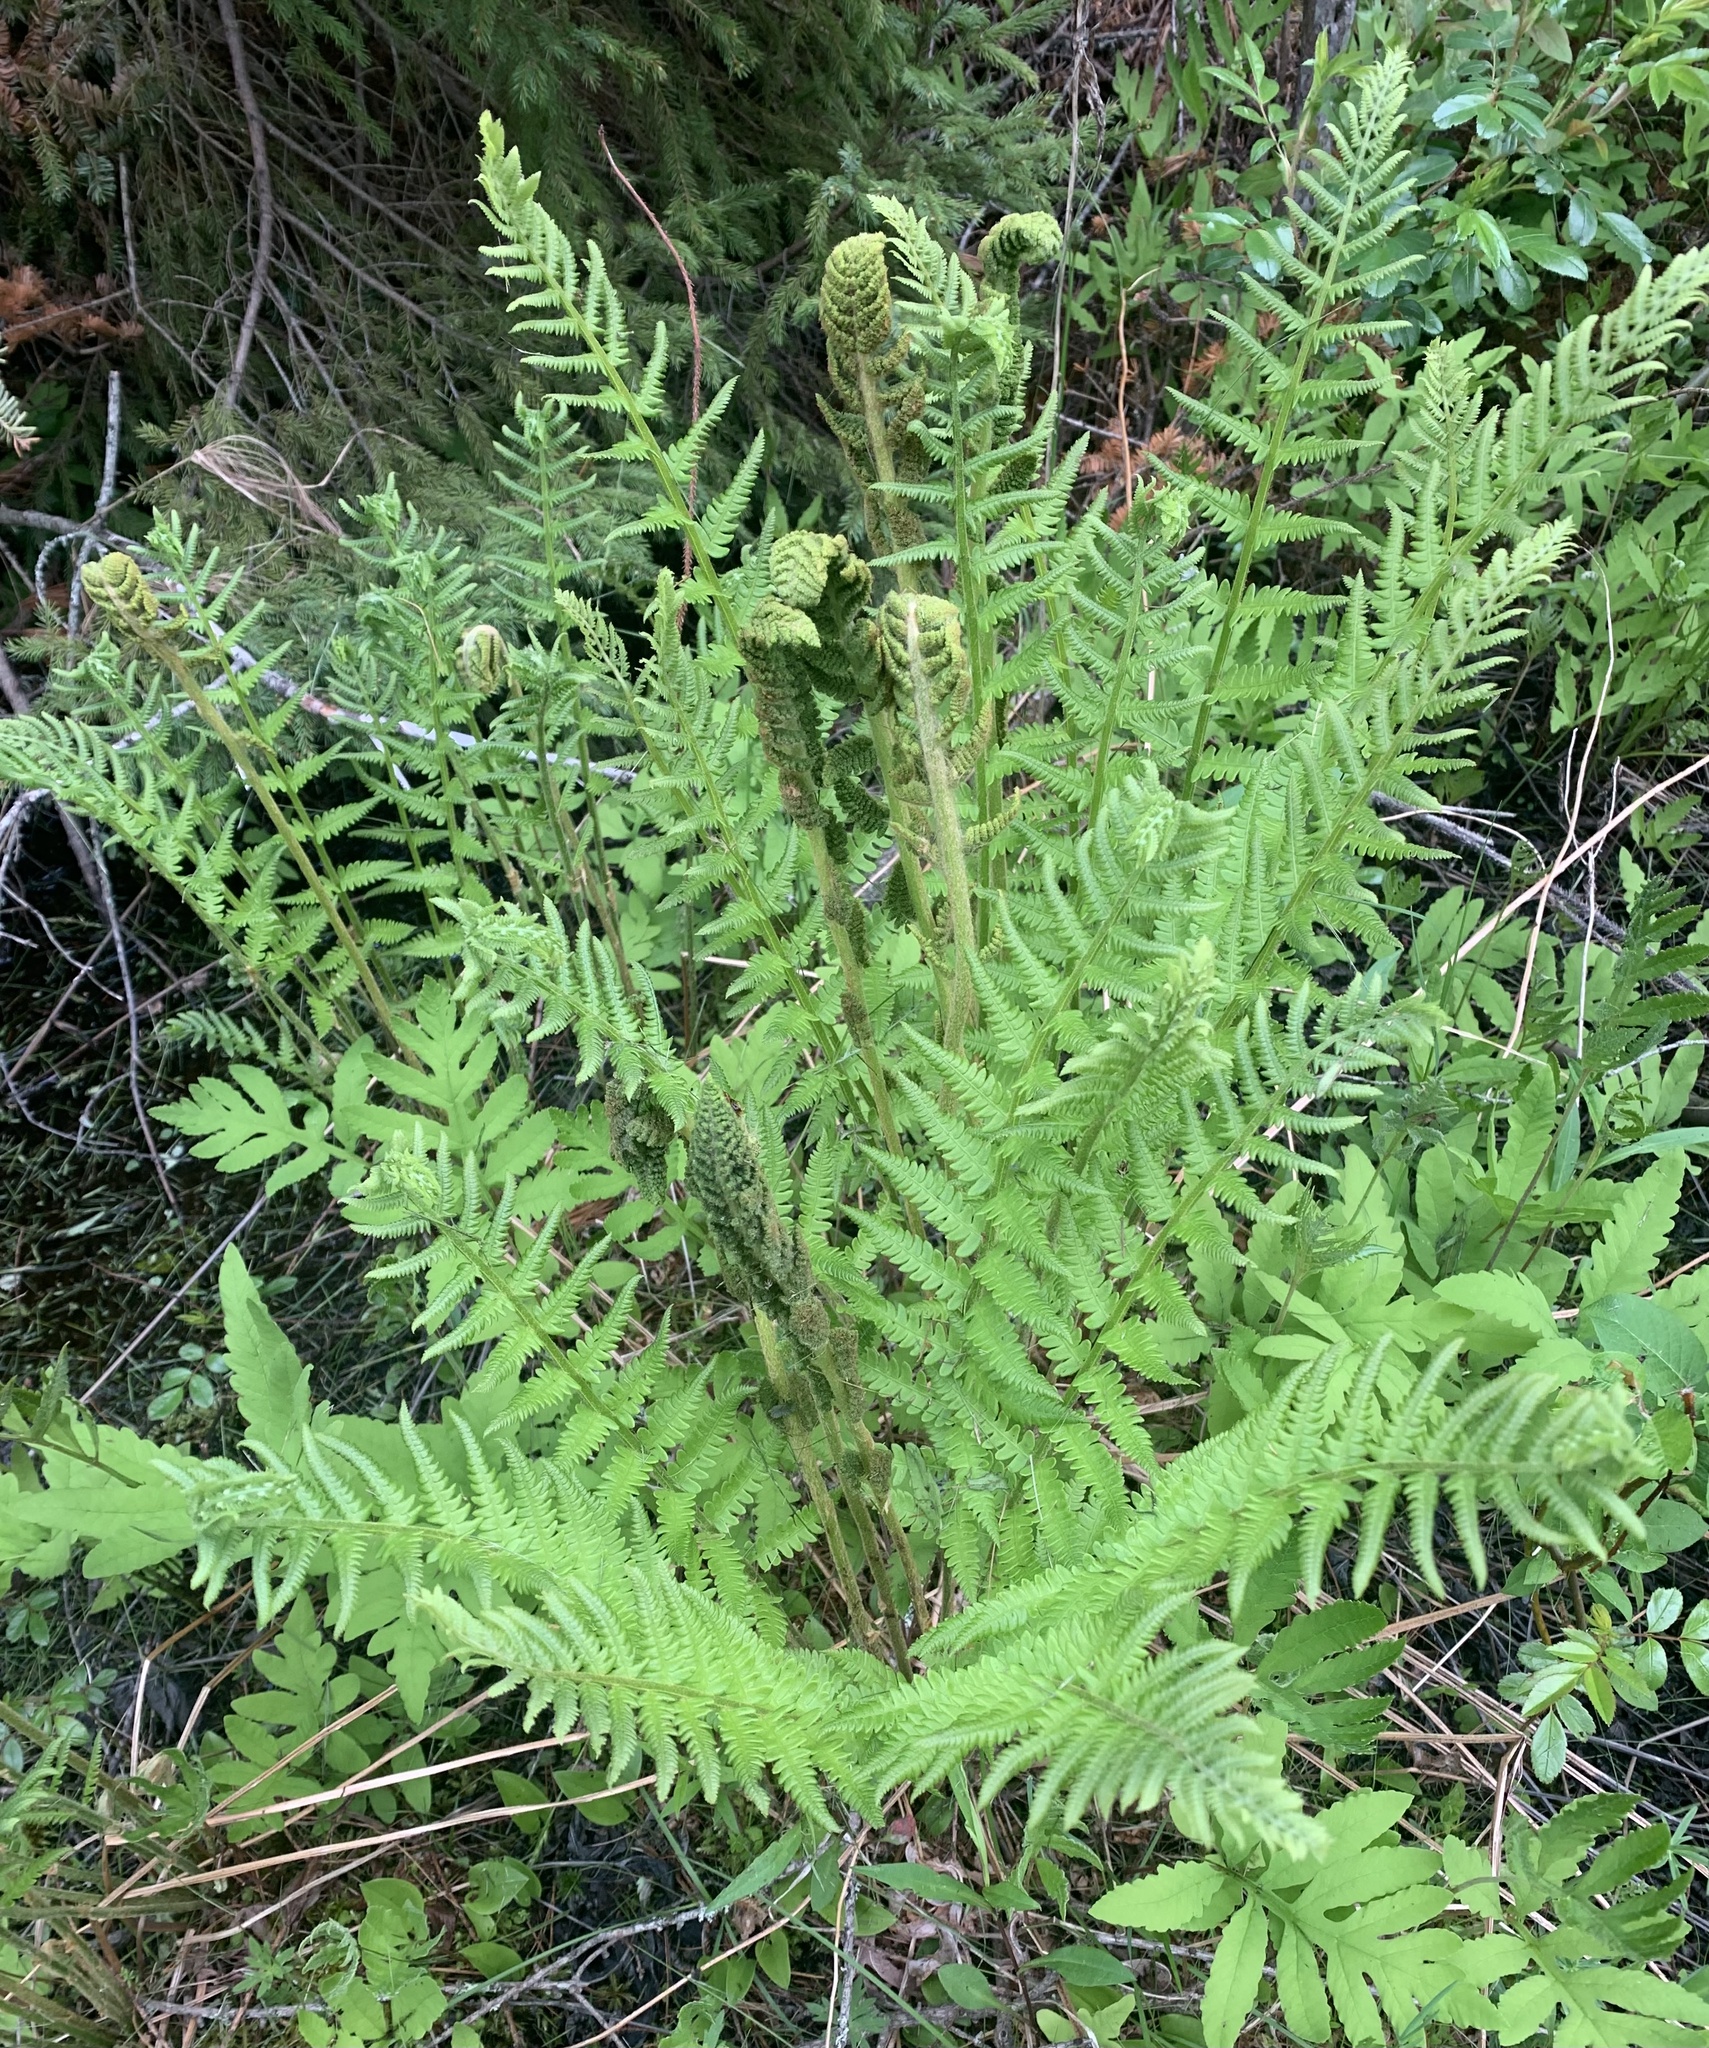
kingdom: Plantae
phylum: Tracheophyta
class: Polypodiopsida
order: Osmundales
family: Osmundaceae
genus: Osmundastrum
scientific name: Osmundastrum cinnamomeum
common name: Cinnamon fern
